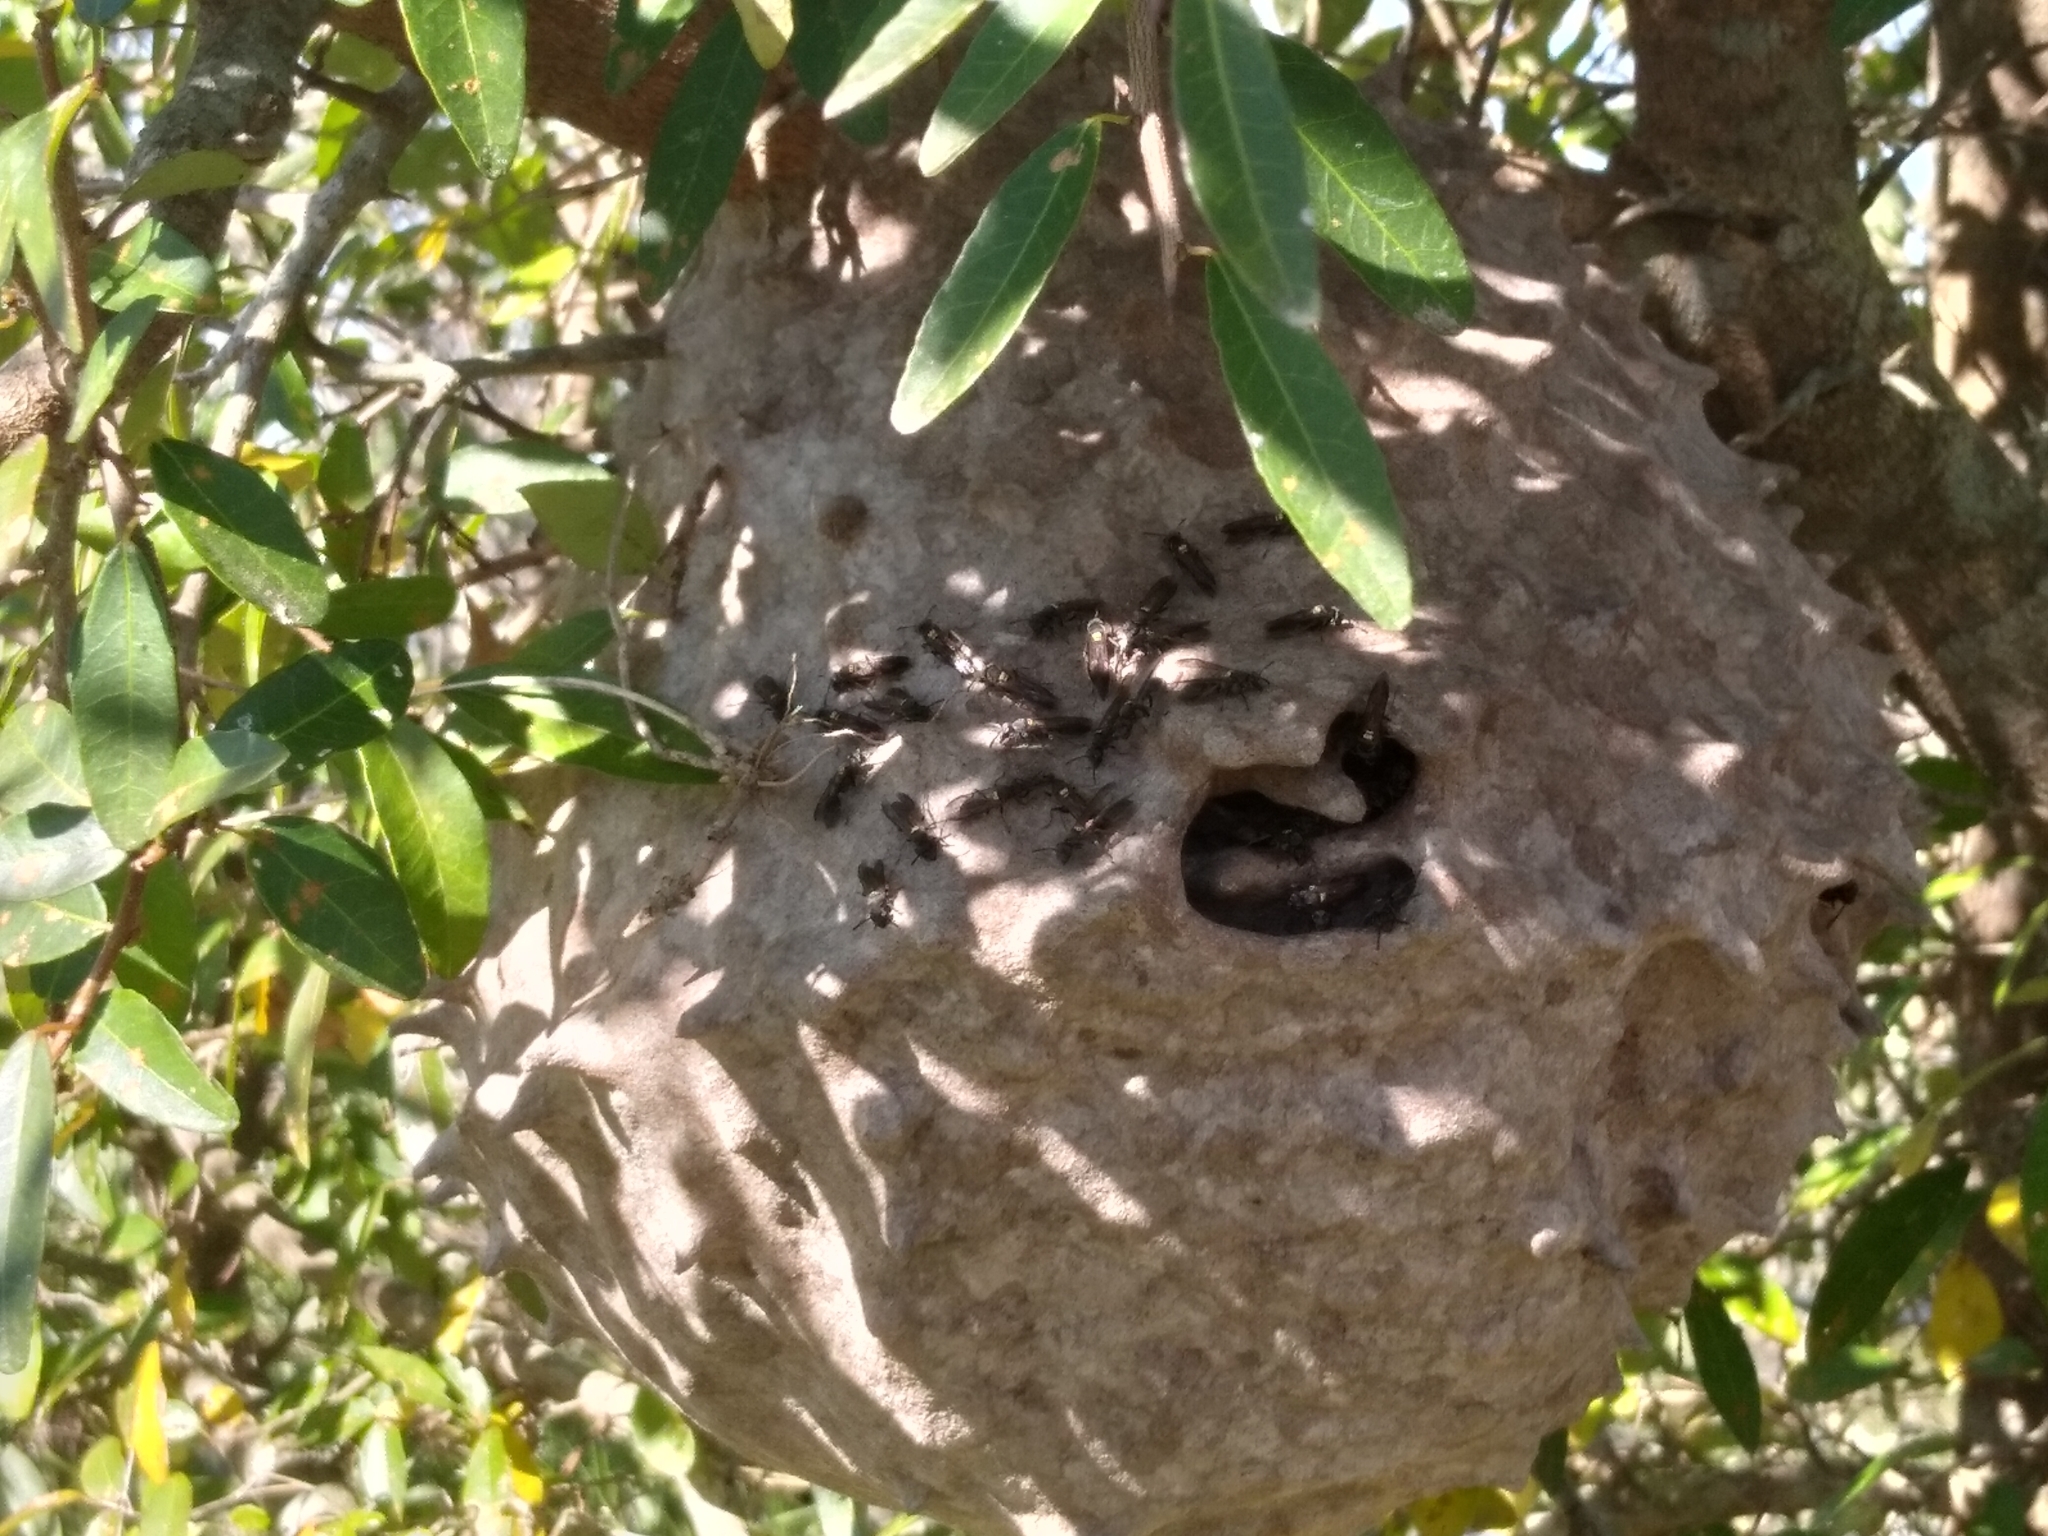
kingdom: Animalia
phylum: Arthropoda
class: Insecta
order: Hymenoptera
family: Eumenidae
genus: Polybia
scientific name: Polybia scutellaris
